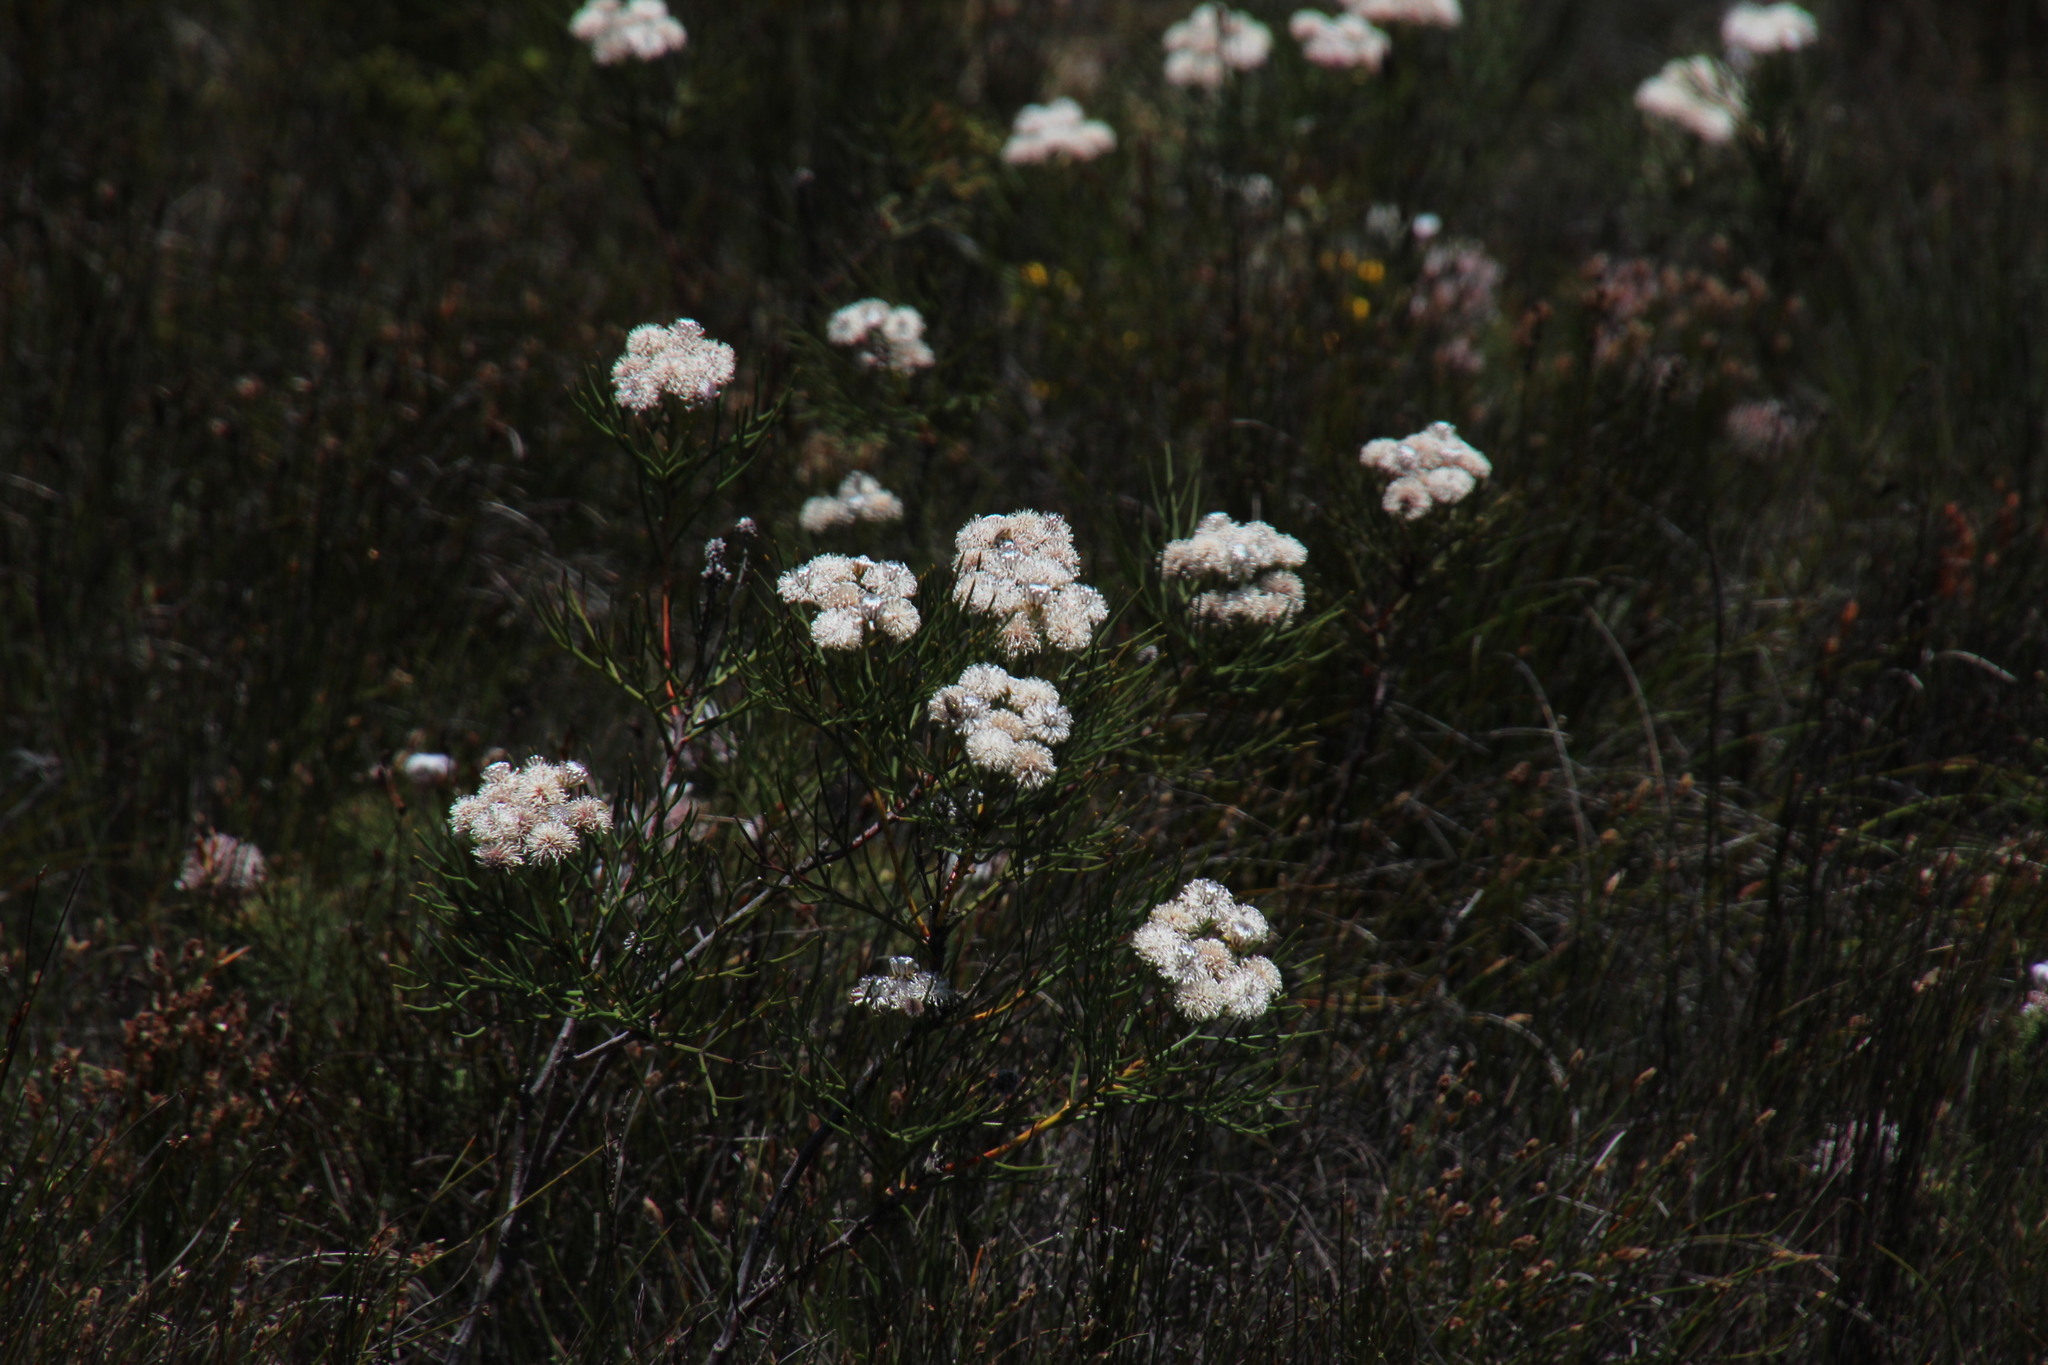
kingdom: Plantae
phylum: Tracheophyta
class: Magnoliopsida
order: Proteales
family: Proteaceae
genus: Serruria
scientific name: Serruria triternata
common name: Tulbagh spiderhead
